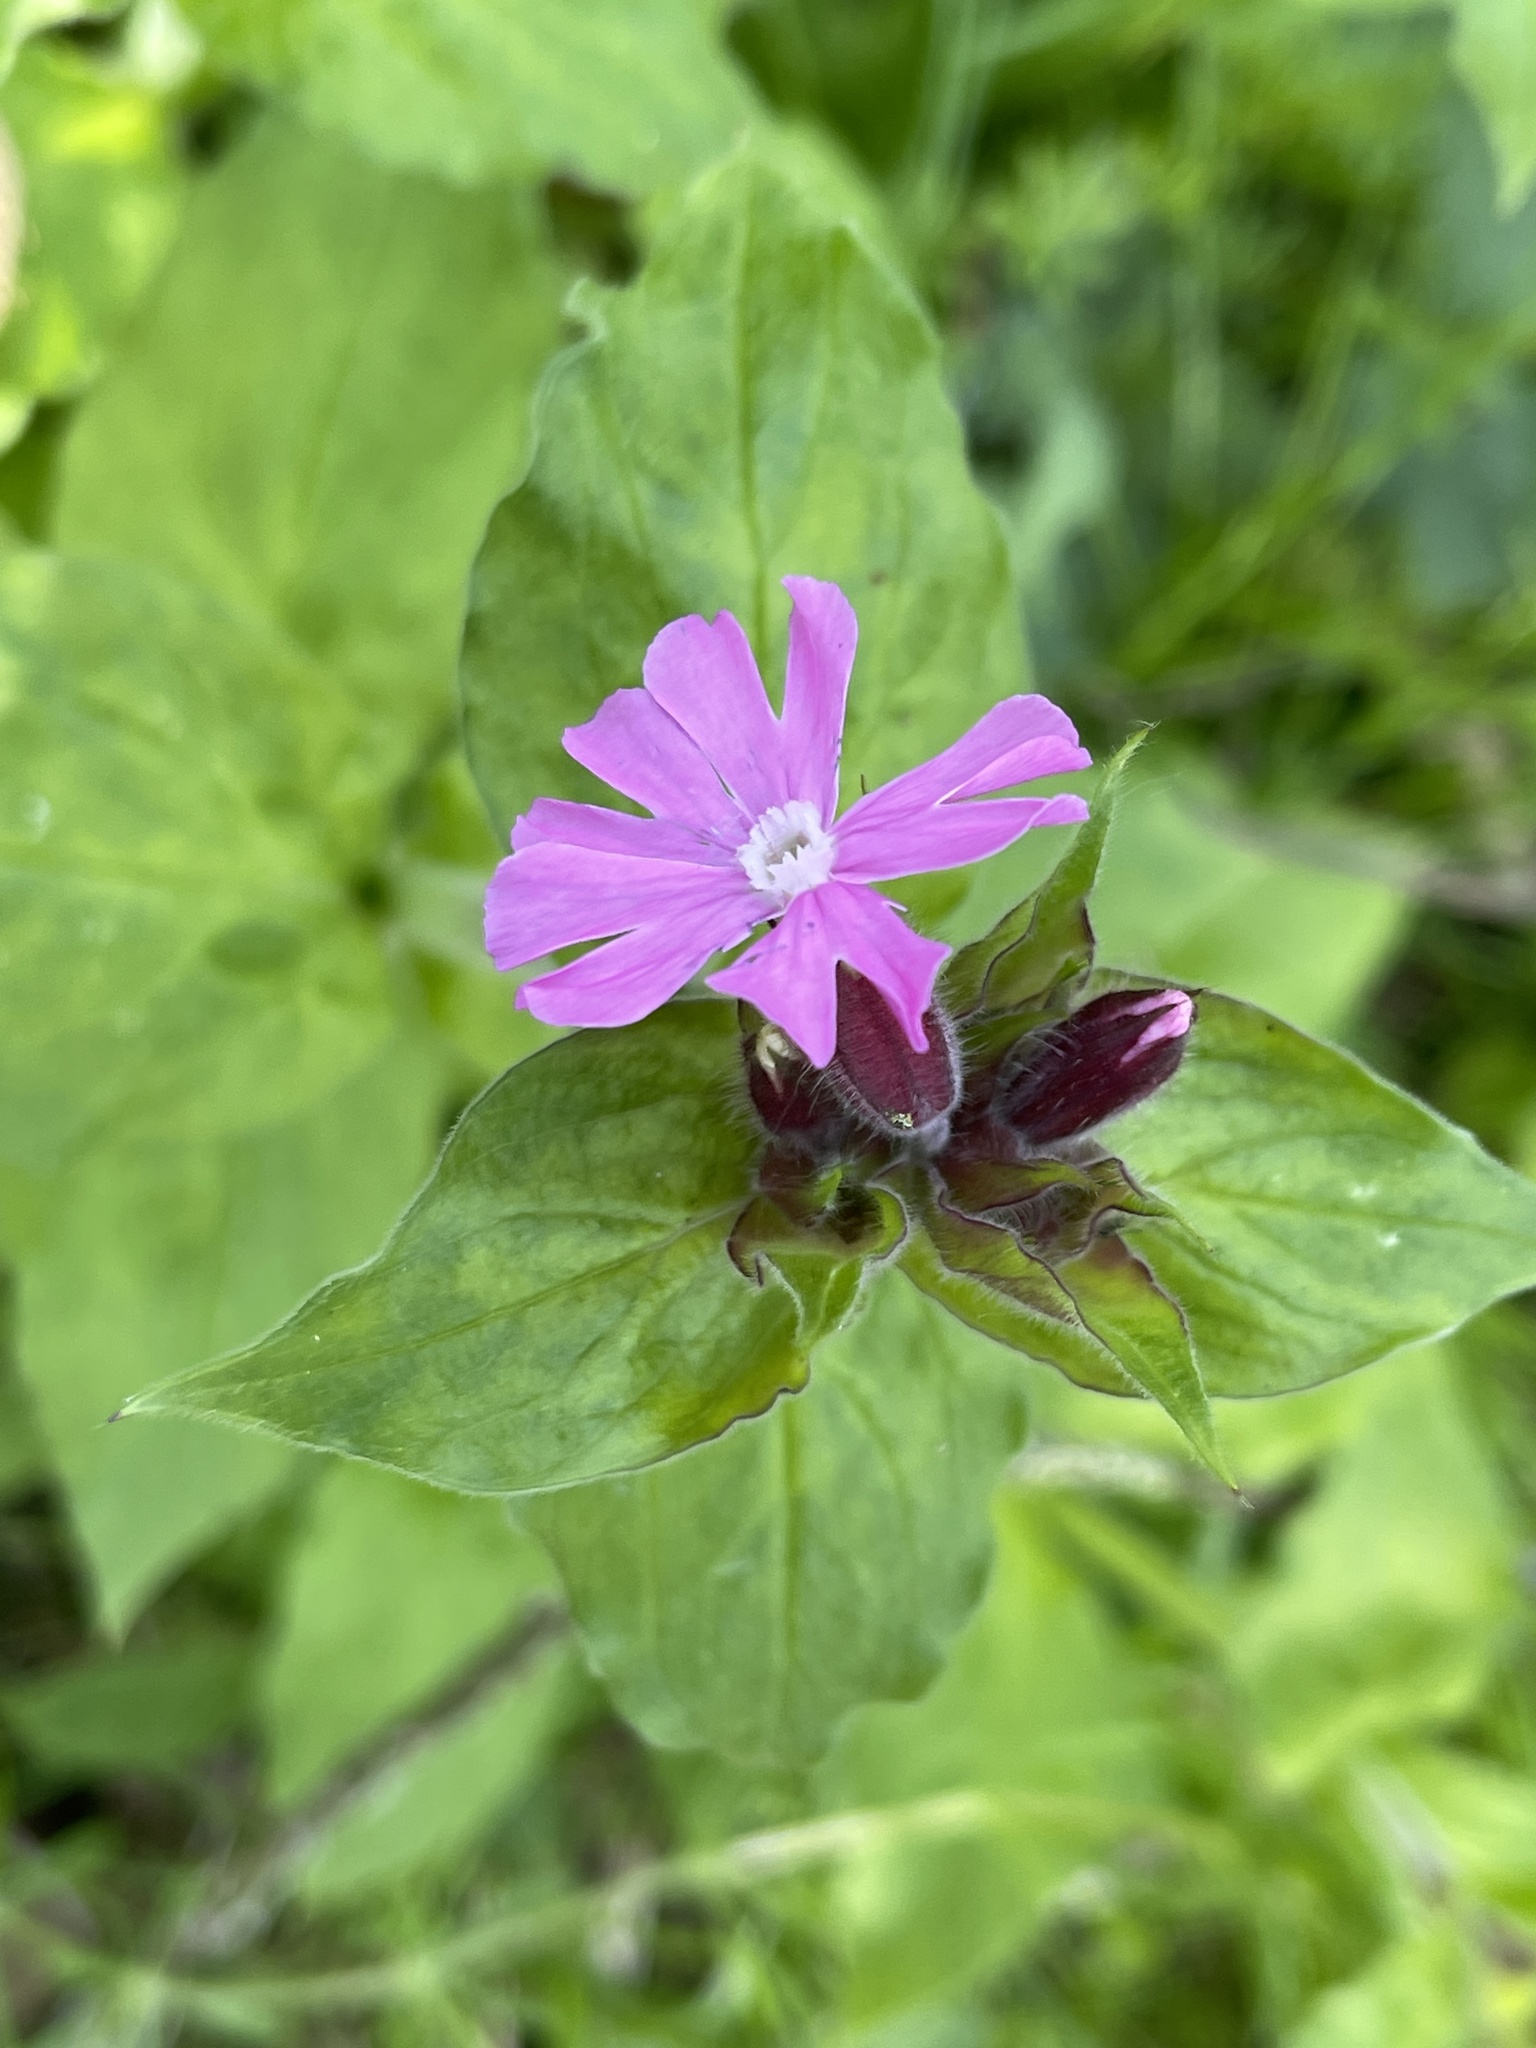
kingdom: Plantae
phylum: Tracheophyta
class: Magnoliopsida
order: Caryophyllales
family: Caryophyllaceae
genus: Silene
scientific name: Silene dioica
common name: Red campion
